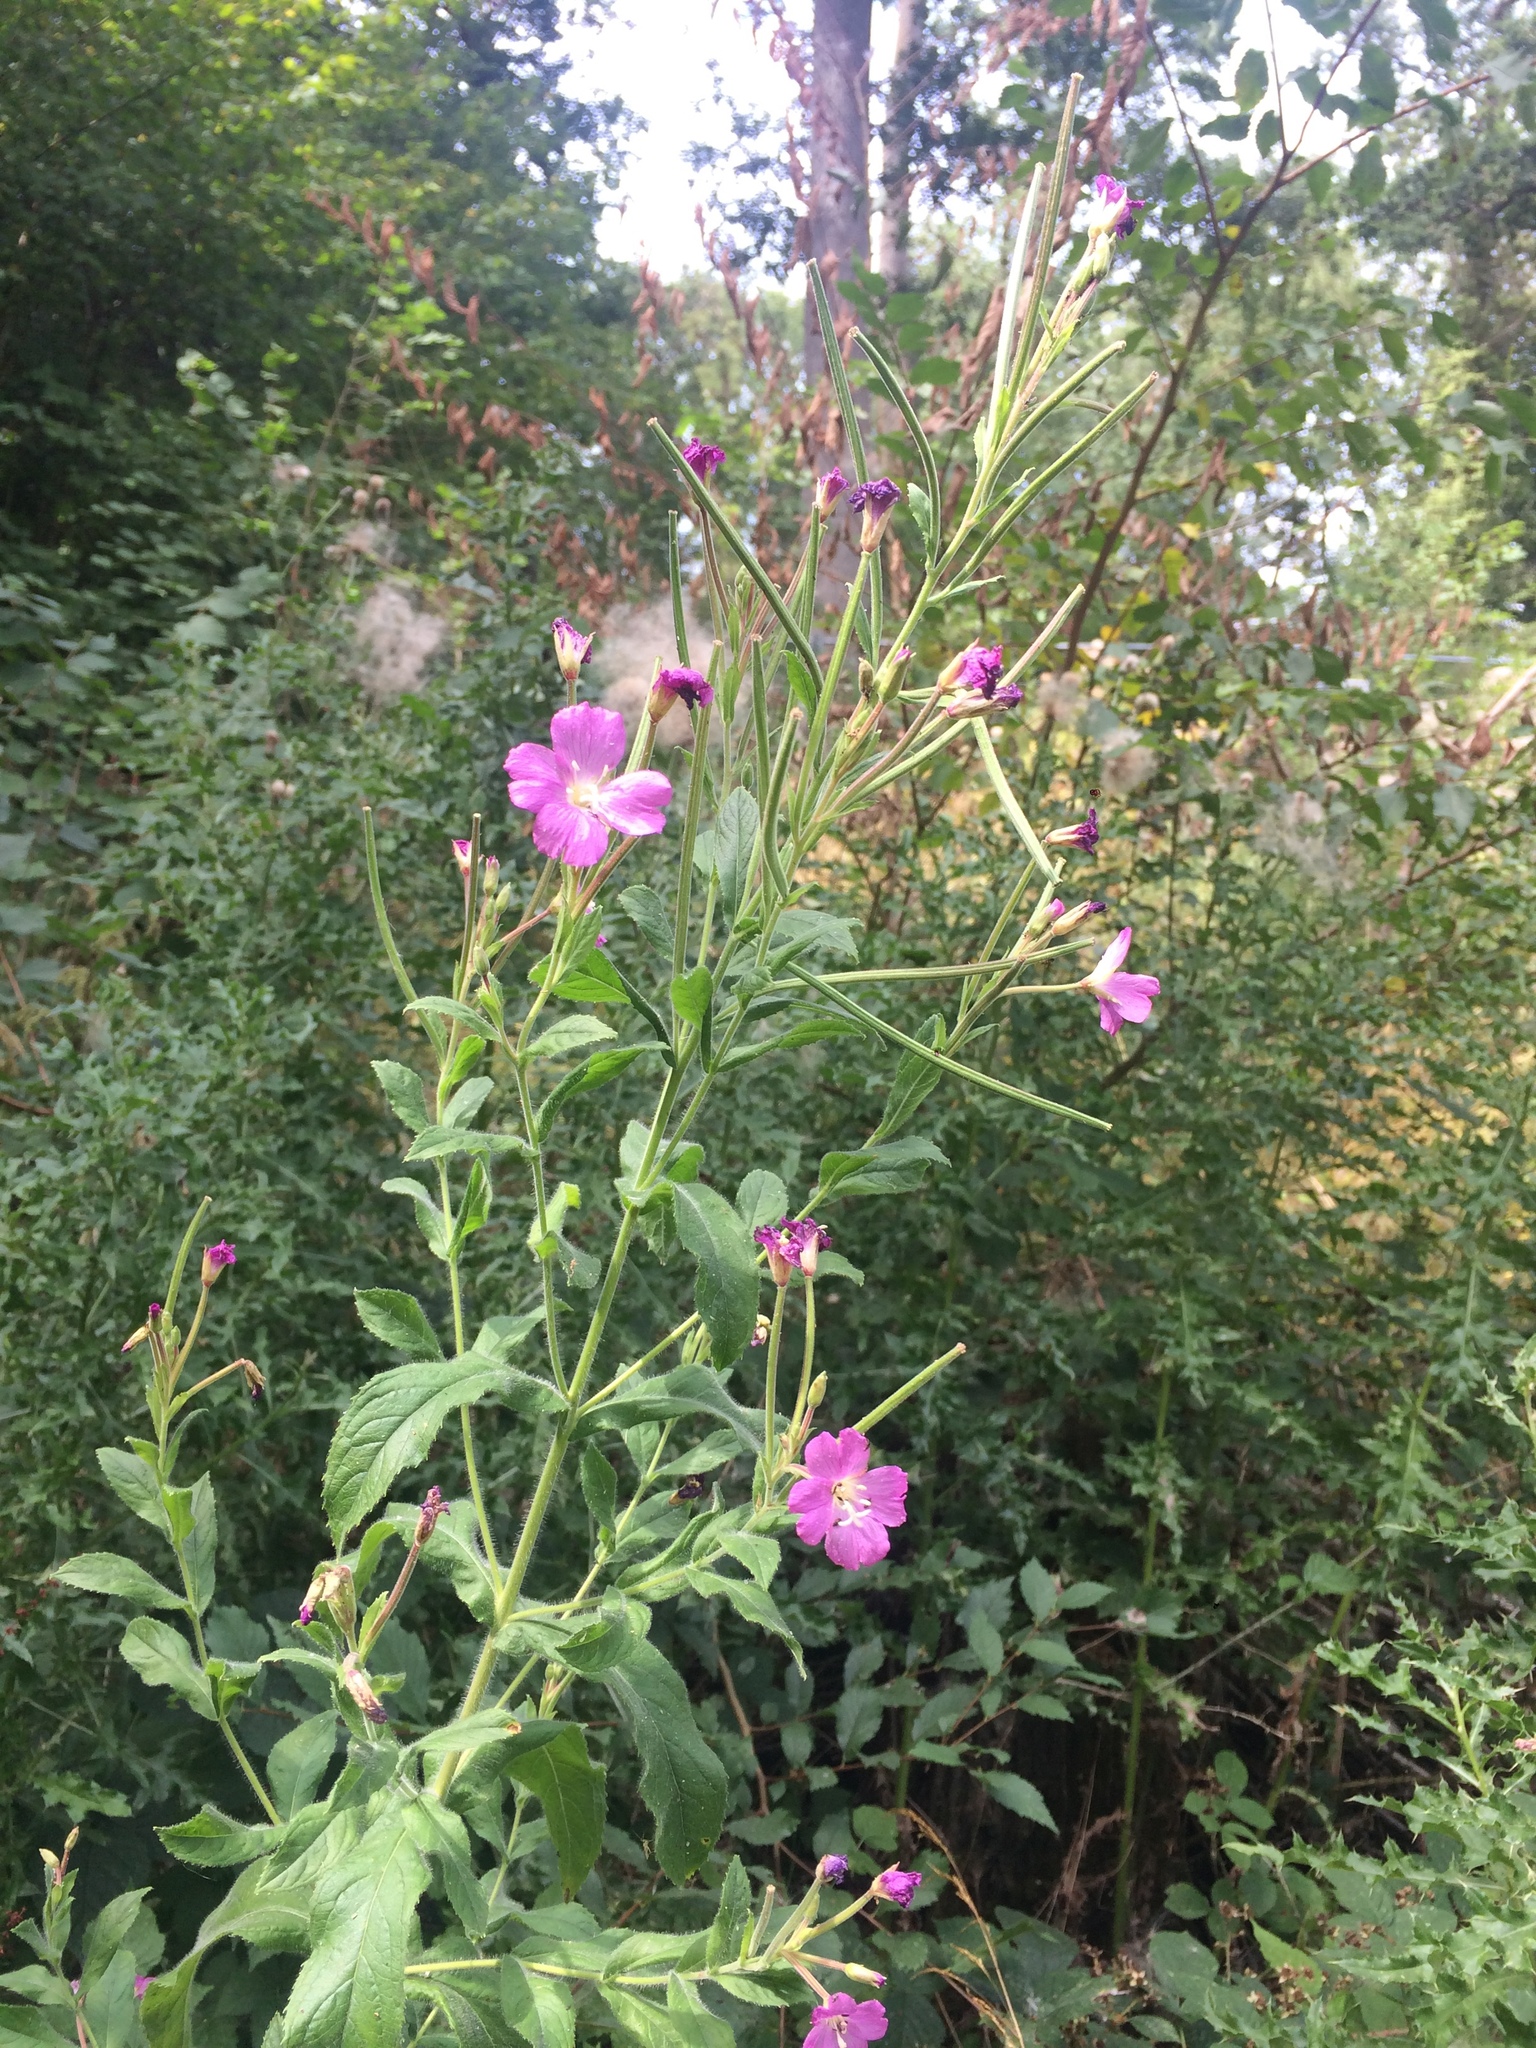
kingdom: Plantae
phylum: Tracheophyta
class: Magnoliopsida
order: Myrtales
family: Onagraceae
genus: Epilobium
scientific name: Epilobium hirsutum
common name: Great willowherb
